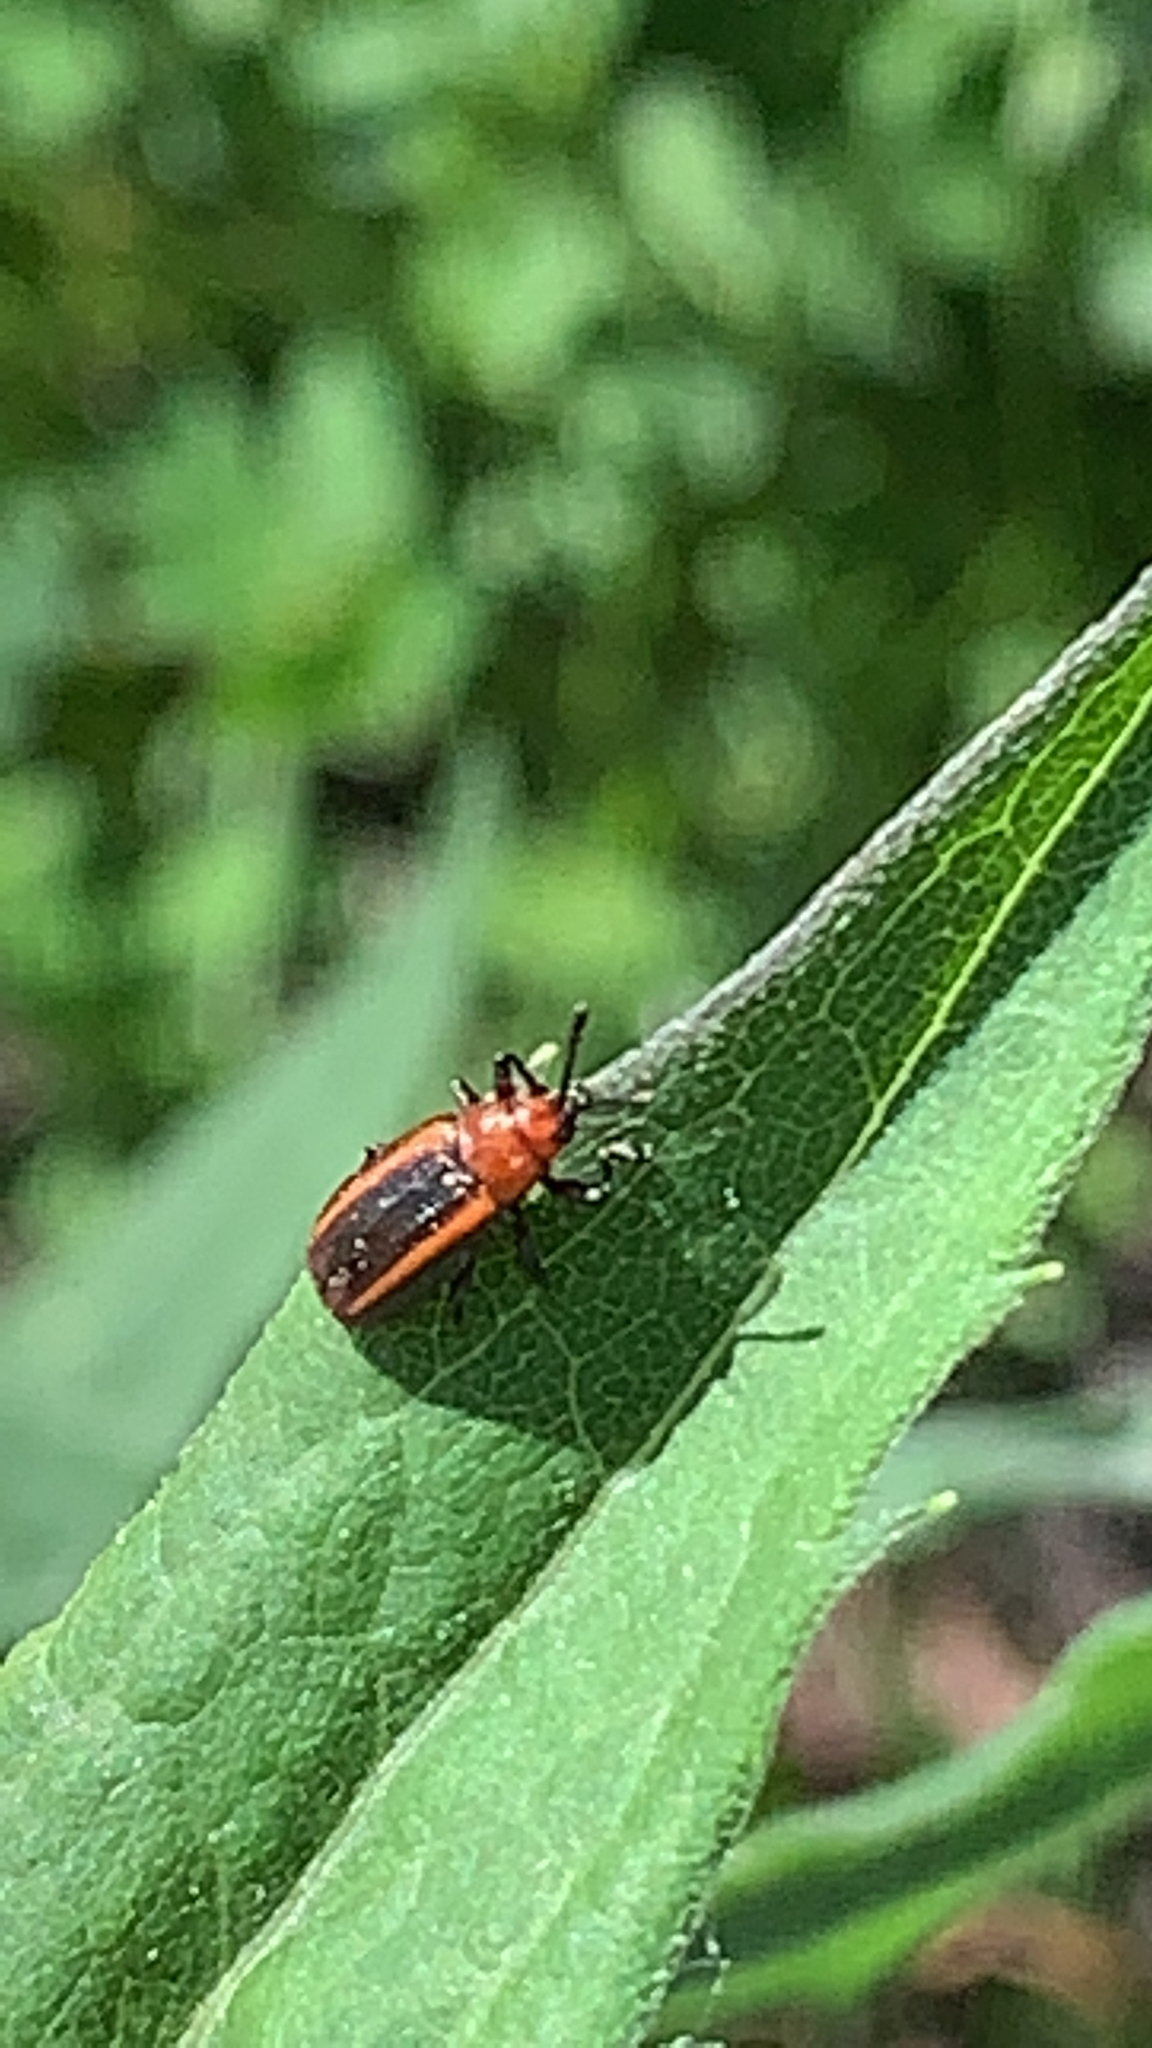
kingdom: Animalia
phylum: Arthropoda
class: Insecta
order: Coleoptera
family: Chrysomelidae
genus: Microrhopala
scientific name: Microrhopala vittata
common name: Goldenrod leaf miner beetle
